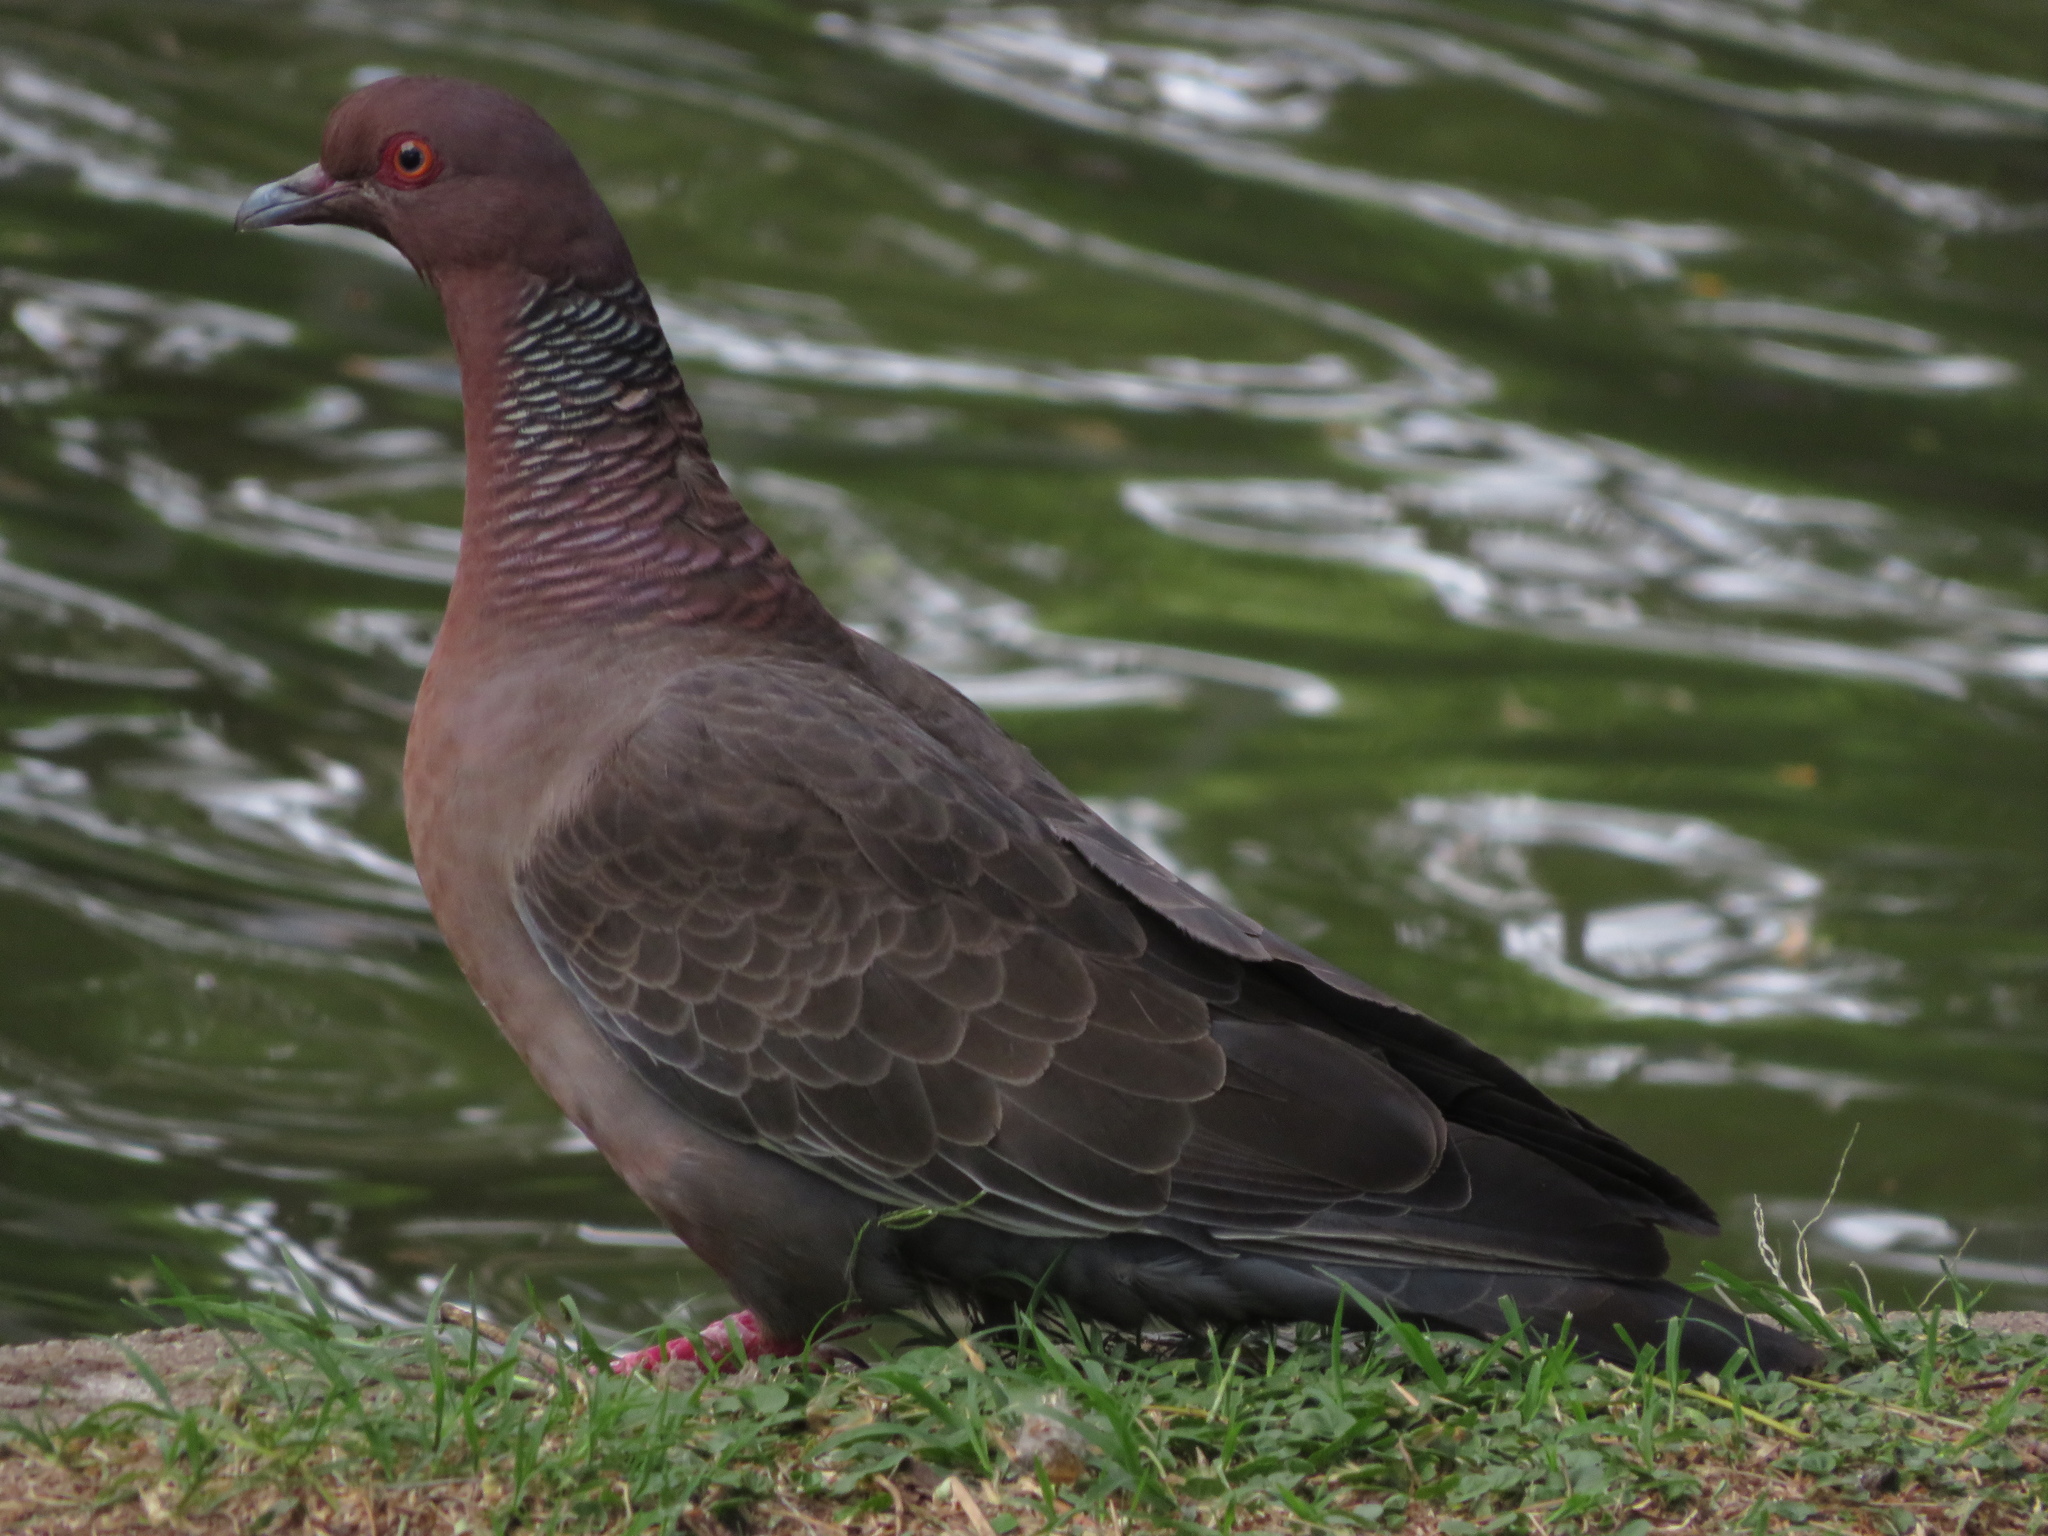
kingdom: Animalia
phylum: Chordata
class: Aves
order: Columbiformes
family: Columbidae
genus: Patagioenas
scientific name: Patagioenas picazuro
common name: Picazuro pigeon
